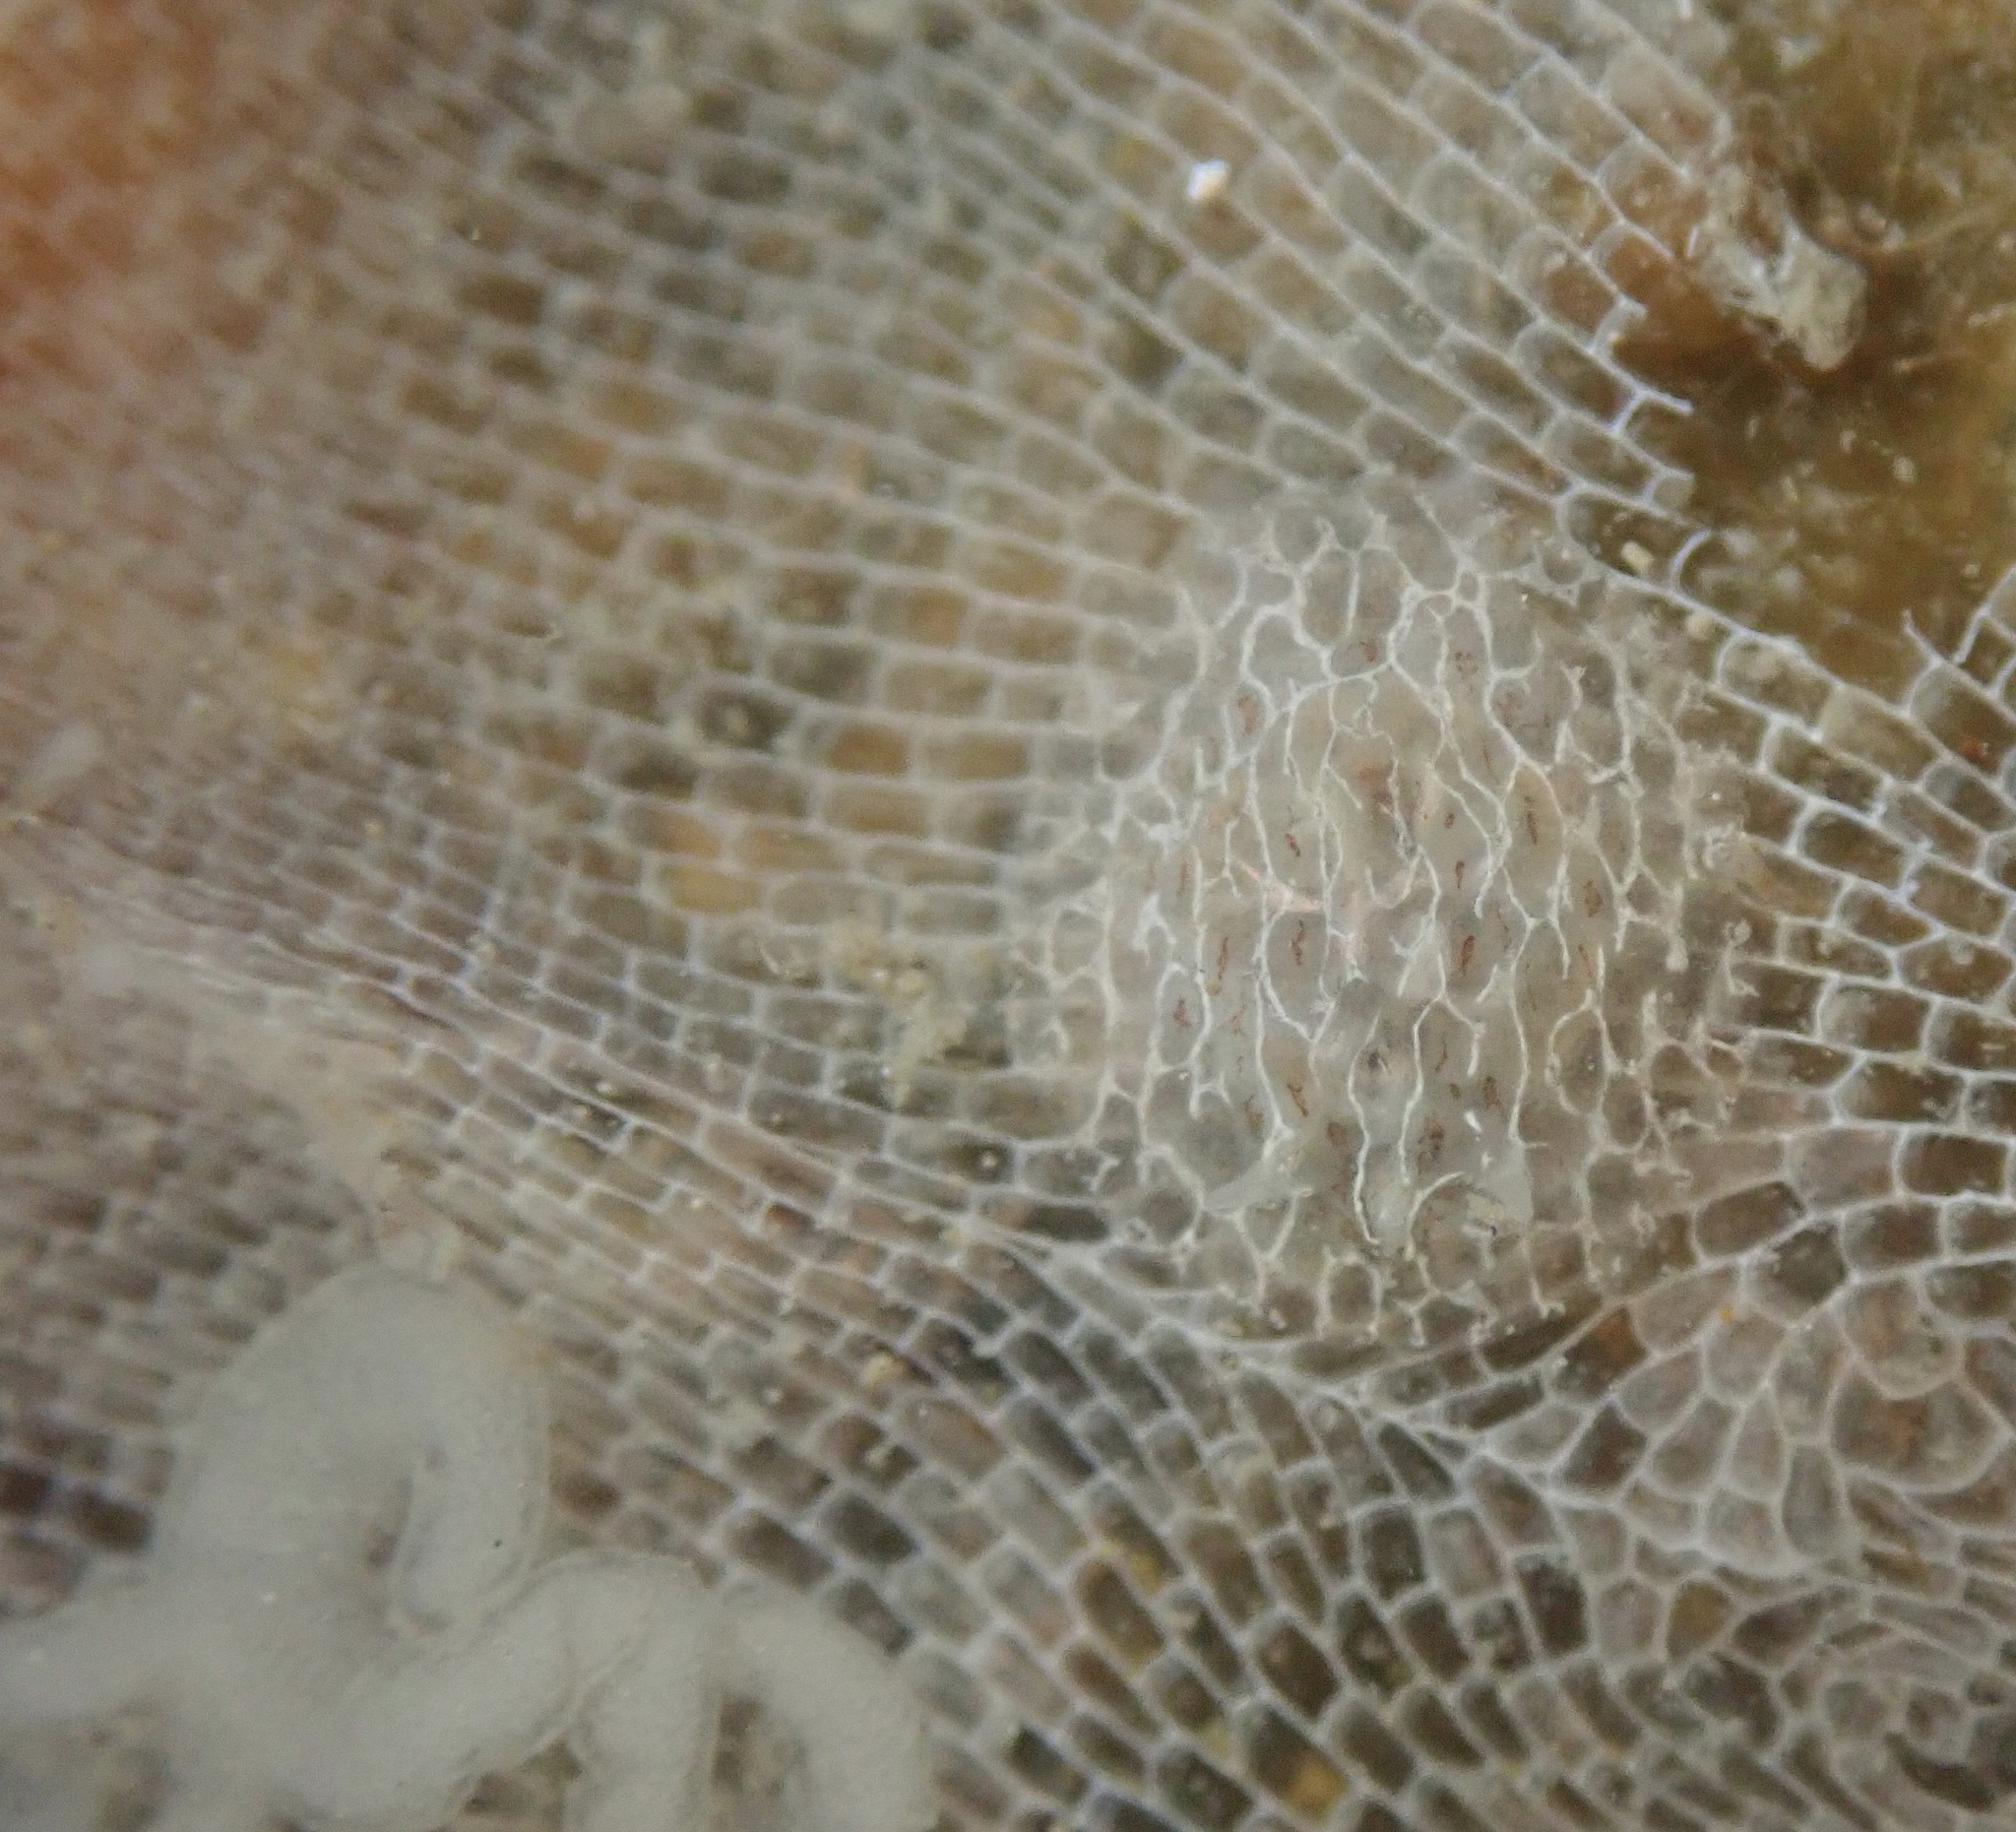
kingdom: Animalia
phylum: Mollusca
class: Gastropoda
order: Nudibranchia
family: Corambidae
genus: Corambe
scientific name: Corambe steinbergae
